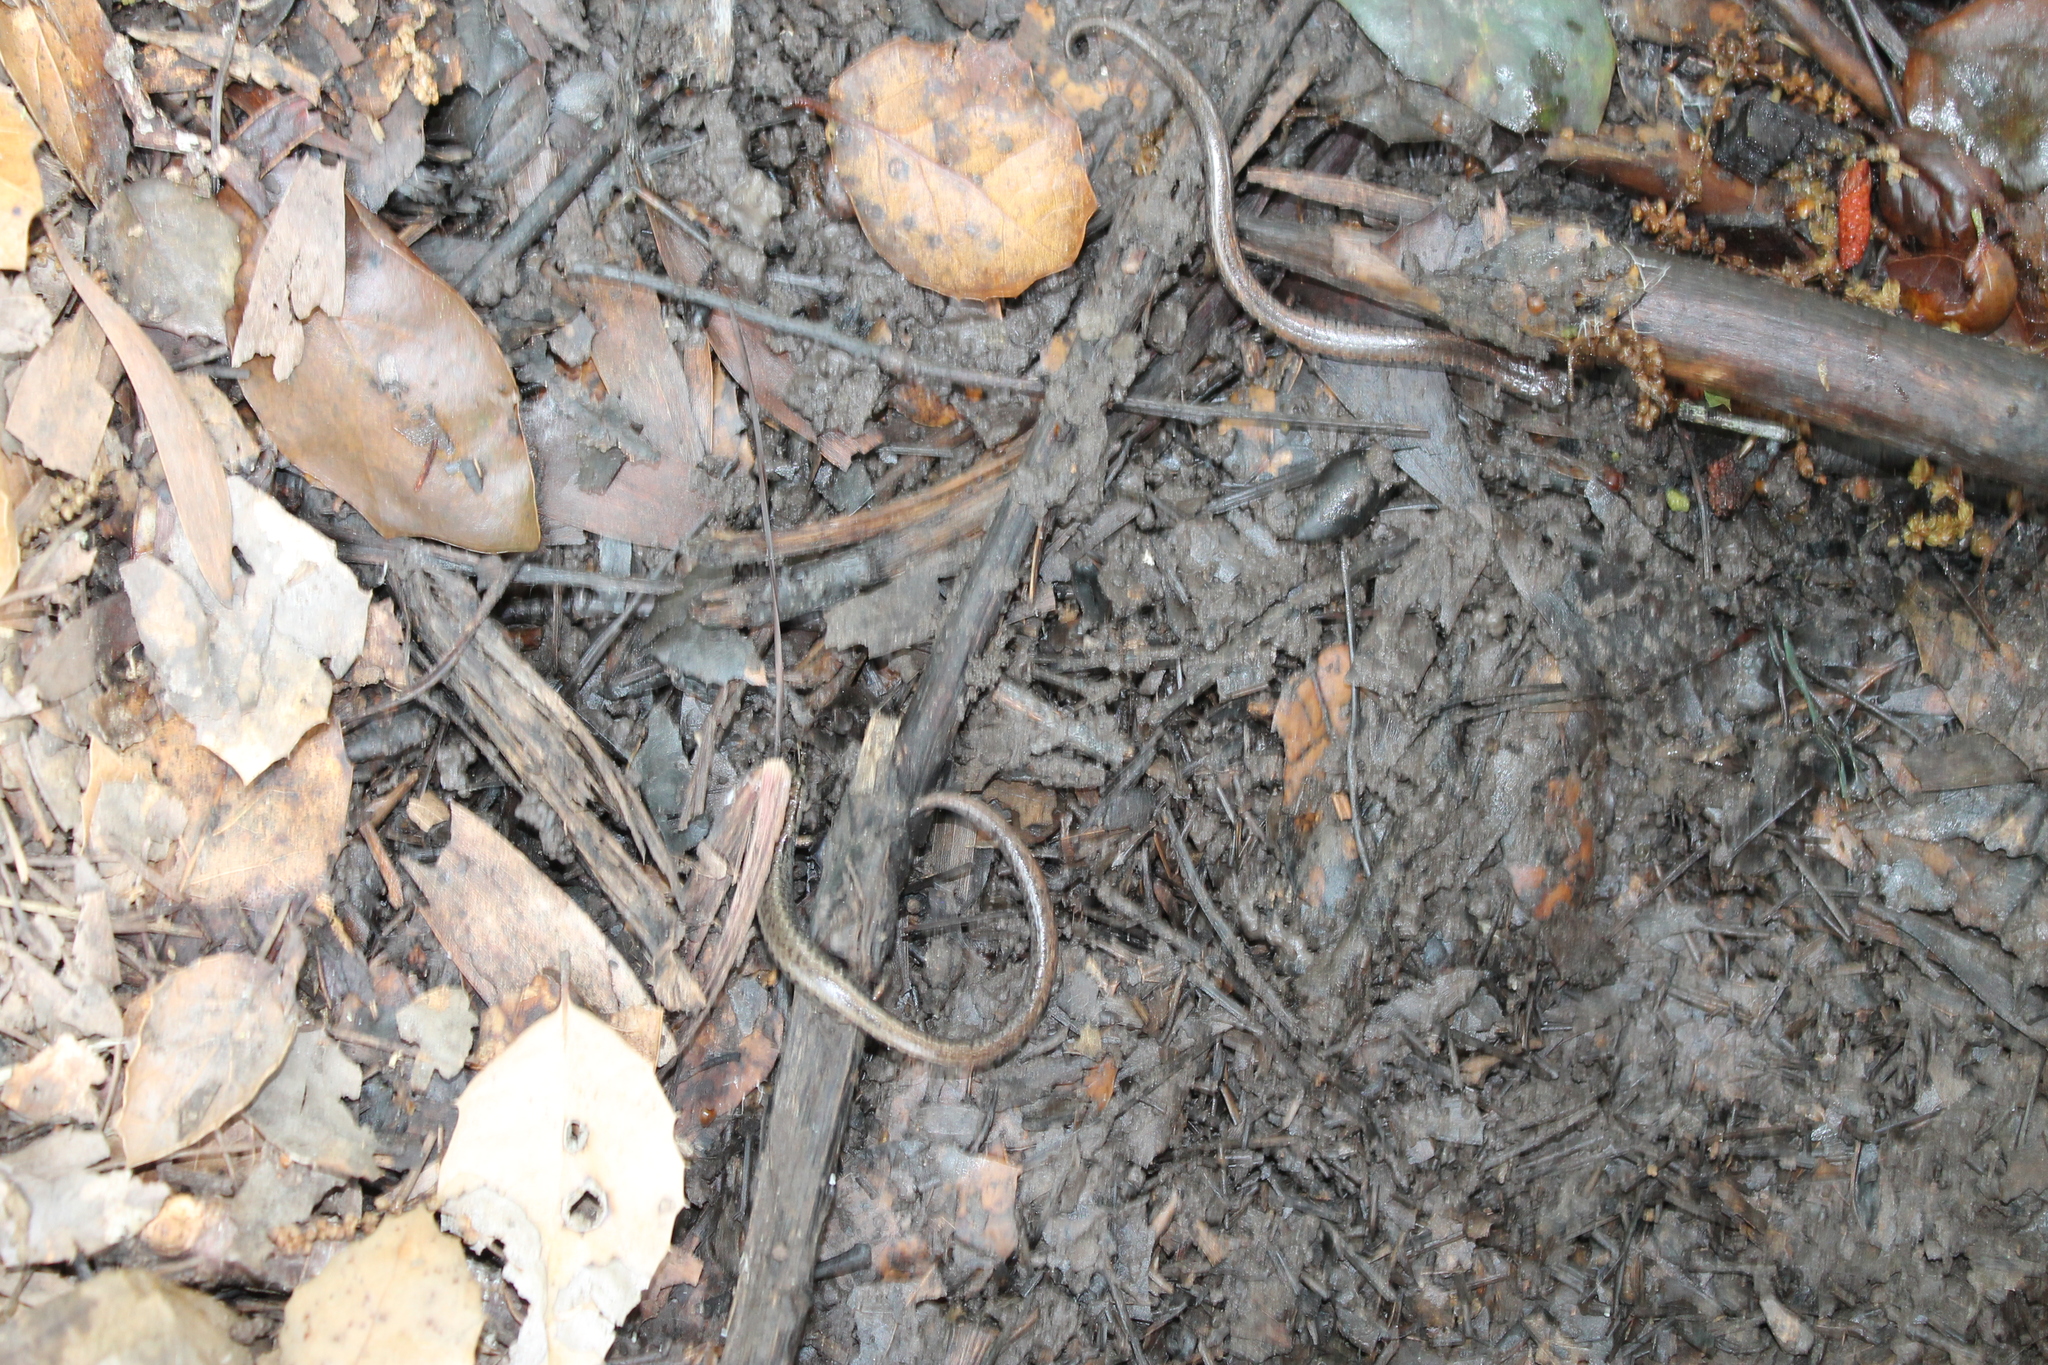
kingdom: Animalia
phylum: Chordata
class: Amphibia
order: Caudata
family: Plethodontidae
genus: Batrachoseps
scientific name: Batrachoseps attenuatus
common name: California slender salamander
